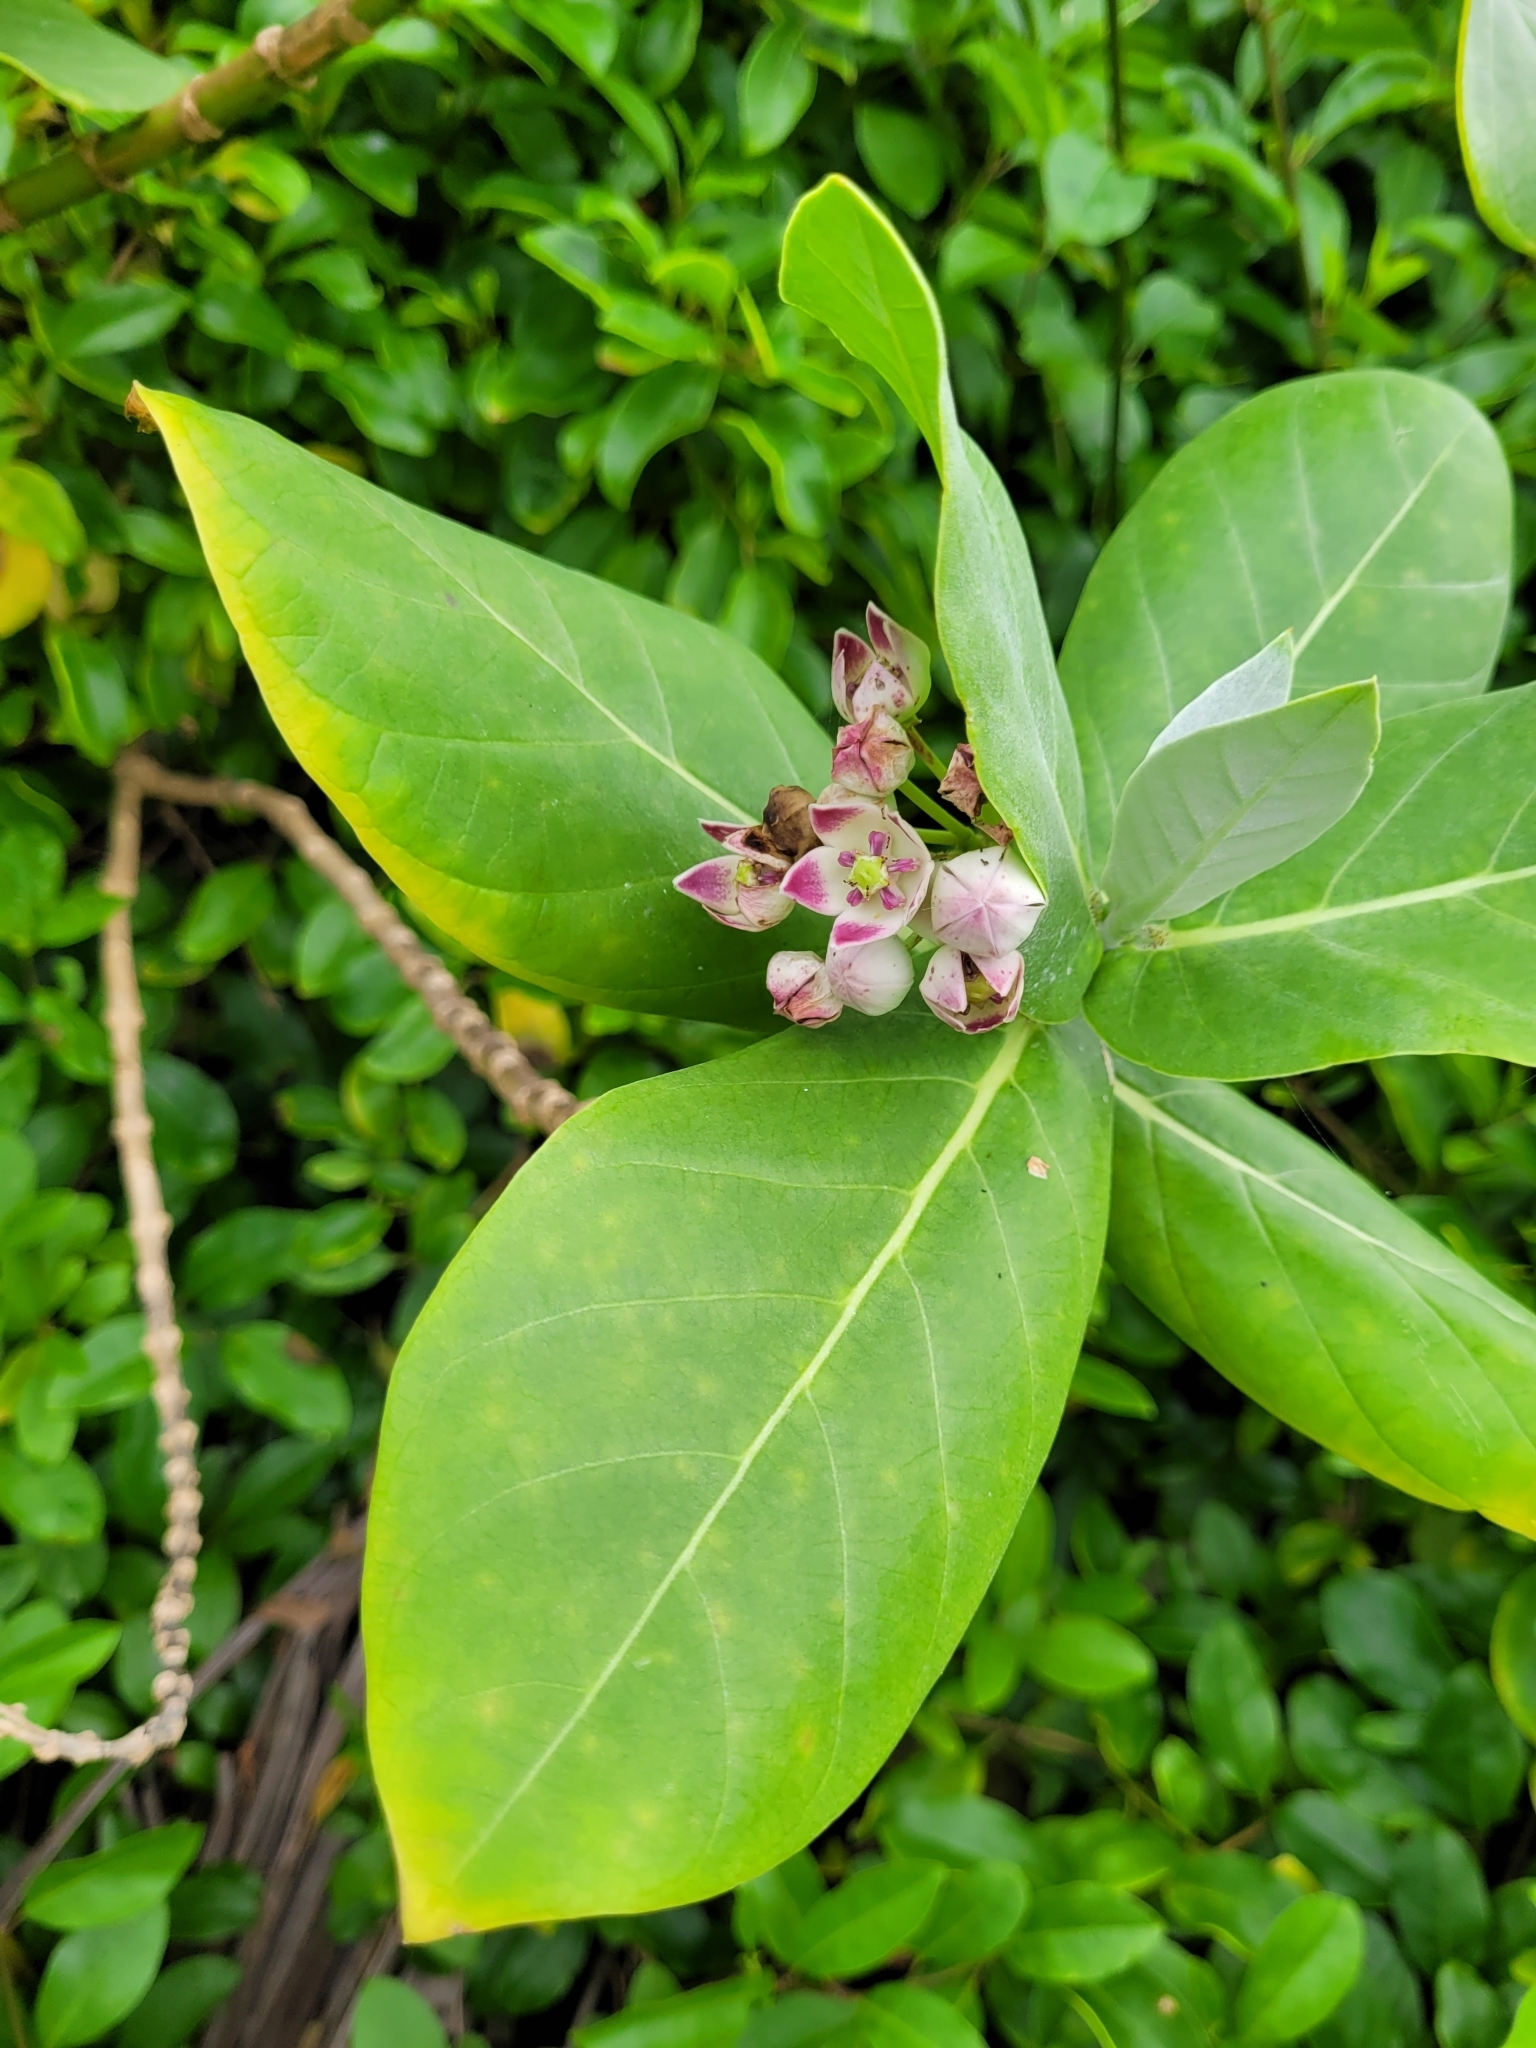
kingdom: Plantae
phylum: Tracheophyta
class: Magnoliopsida
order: Gentianales
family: Apocynaceae
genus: Calotropis
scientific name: Calotropis procera
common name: Roostertree
